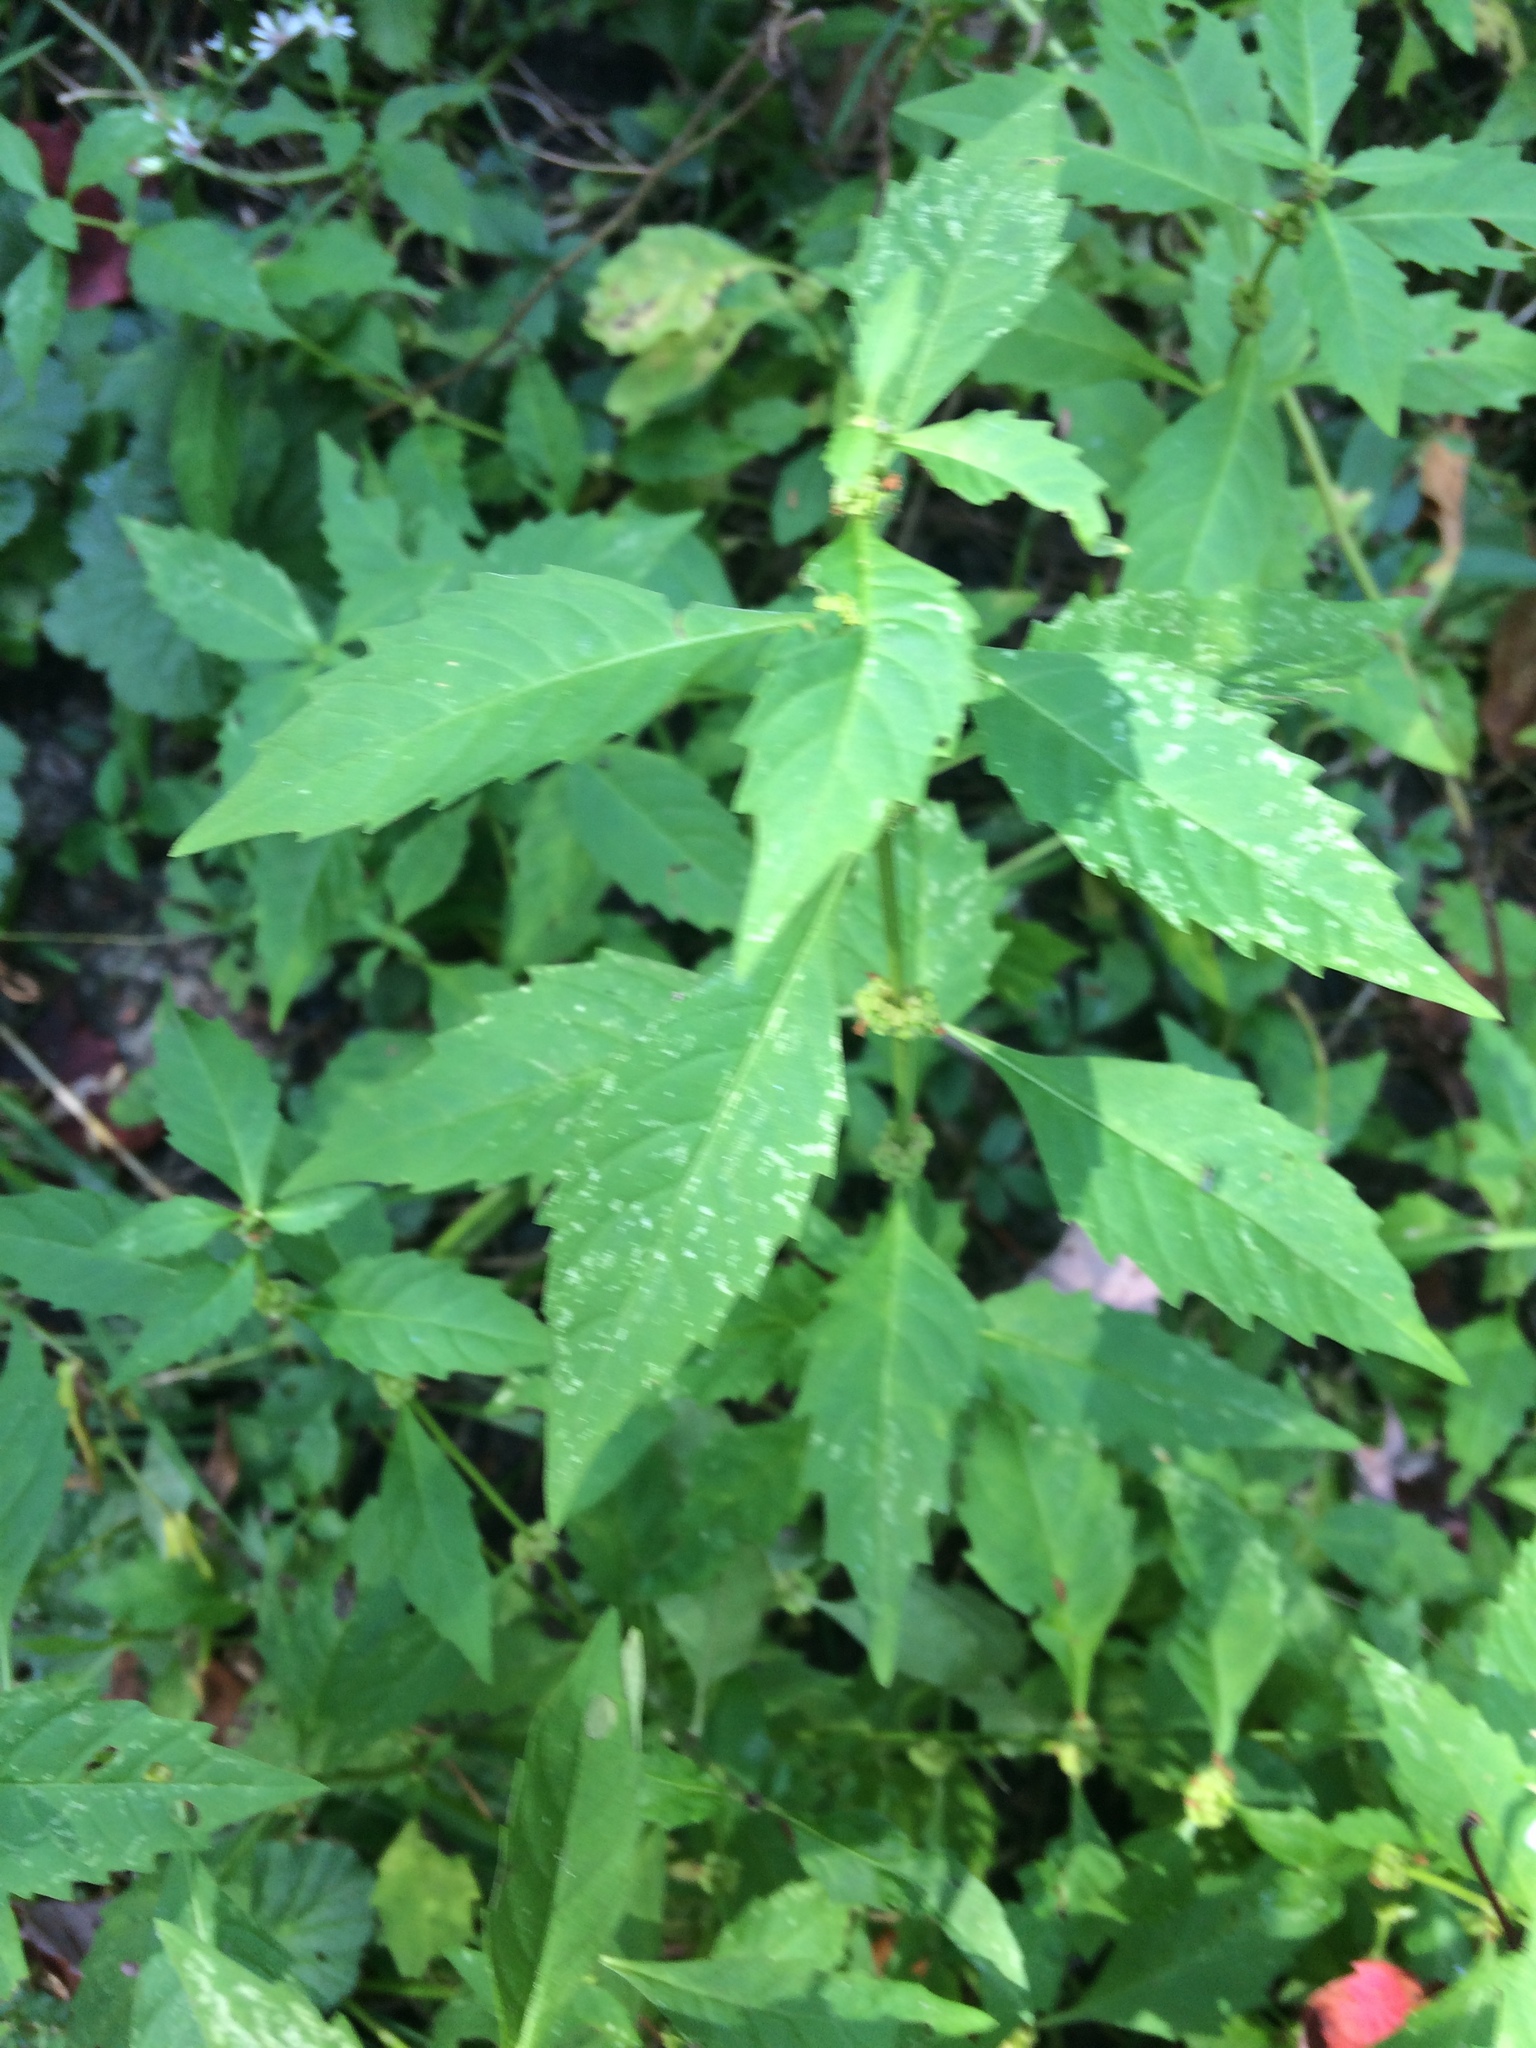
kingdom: Plantae
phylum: Tracheophyta
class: Magnoliopsida
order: Lamiales
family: Lamiaceae
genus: Lycopus
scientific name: Lycopus uniflorus
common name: Northern bugleweed
